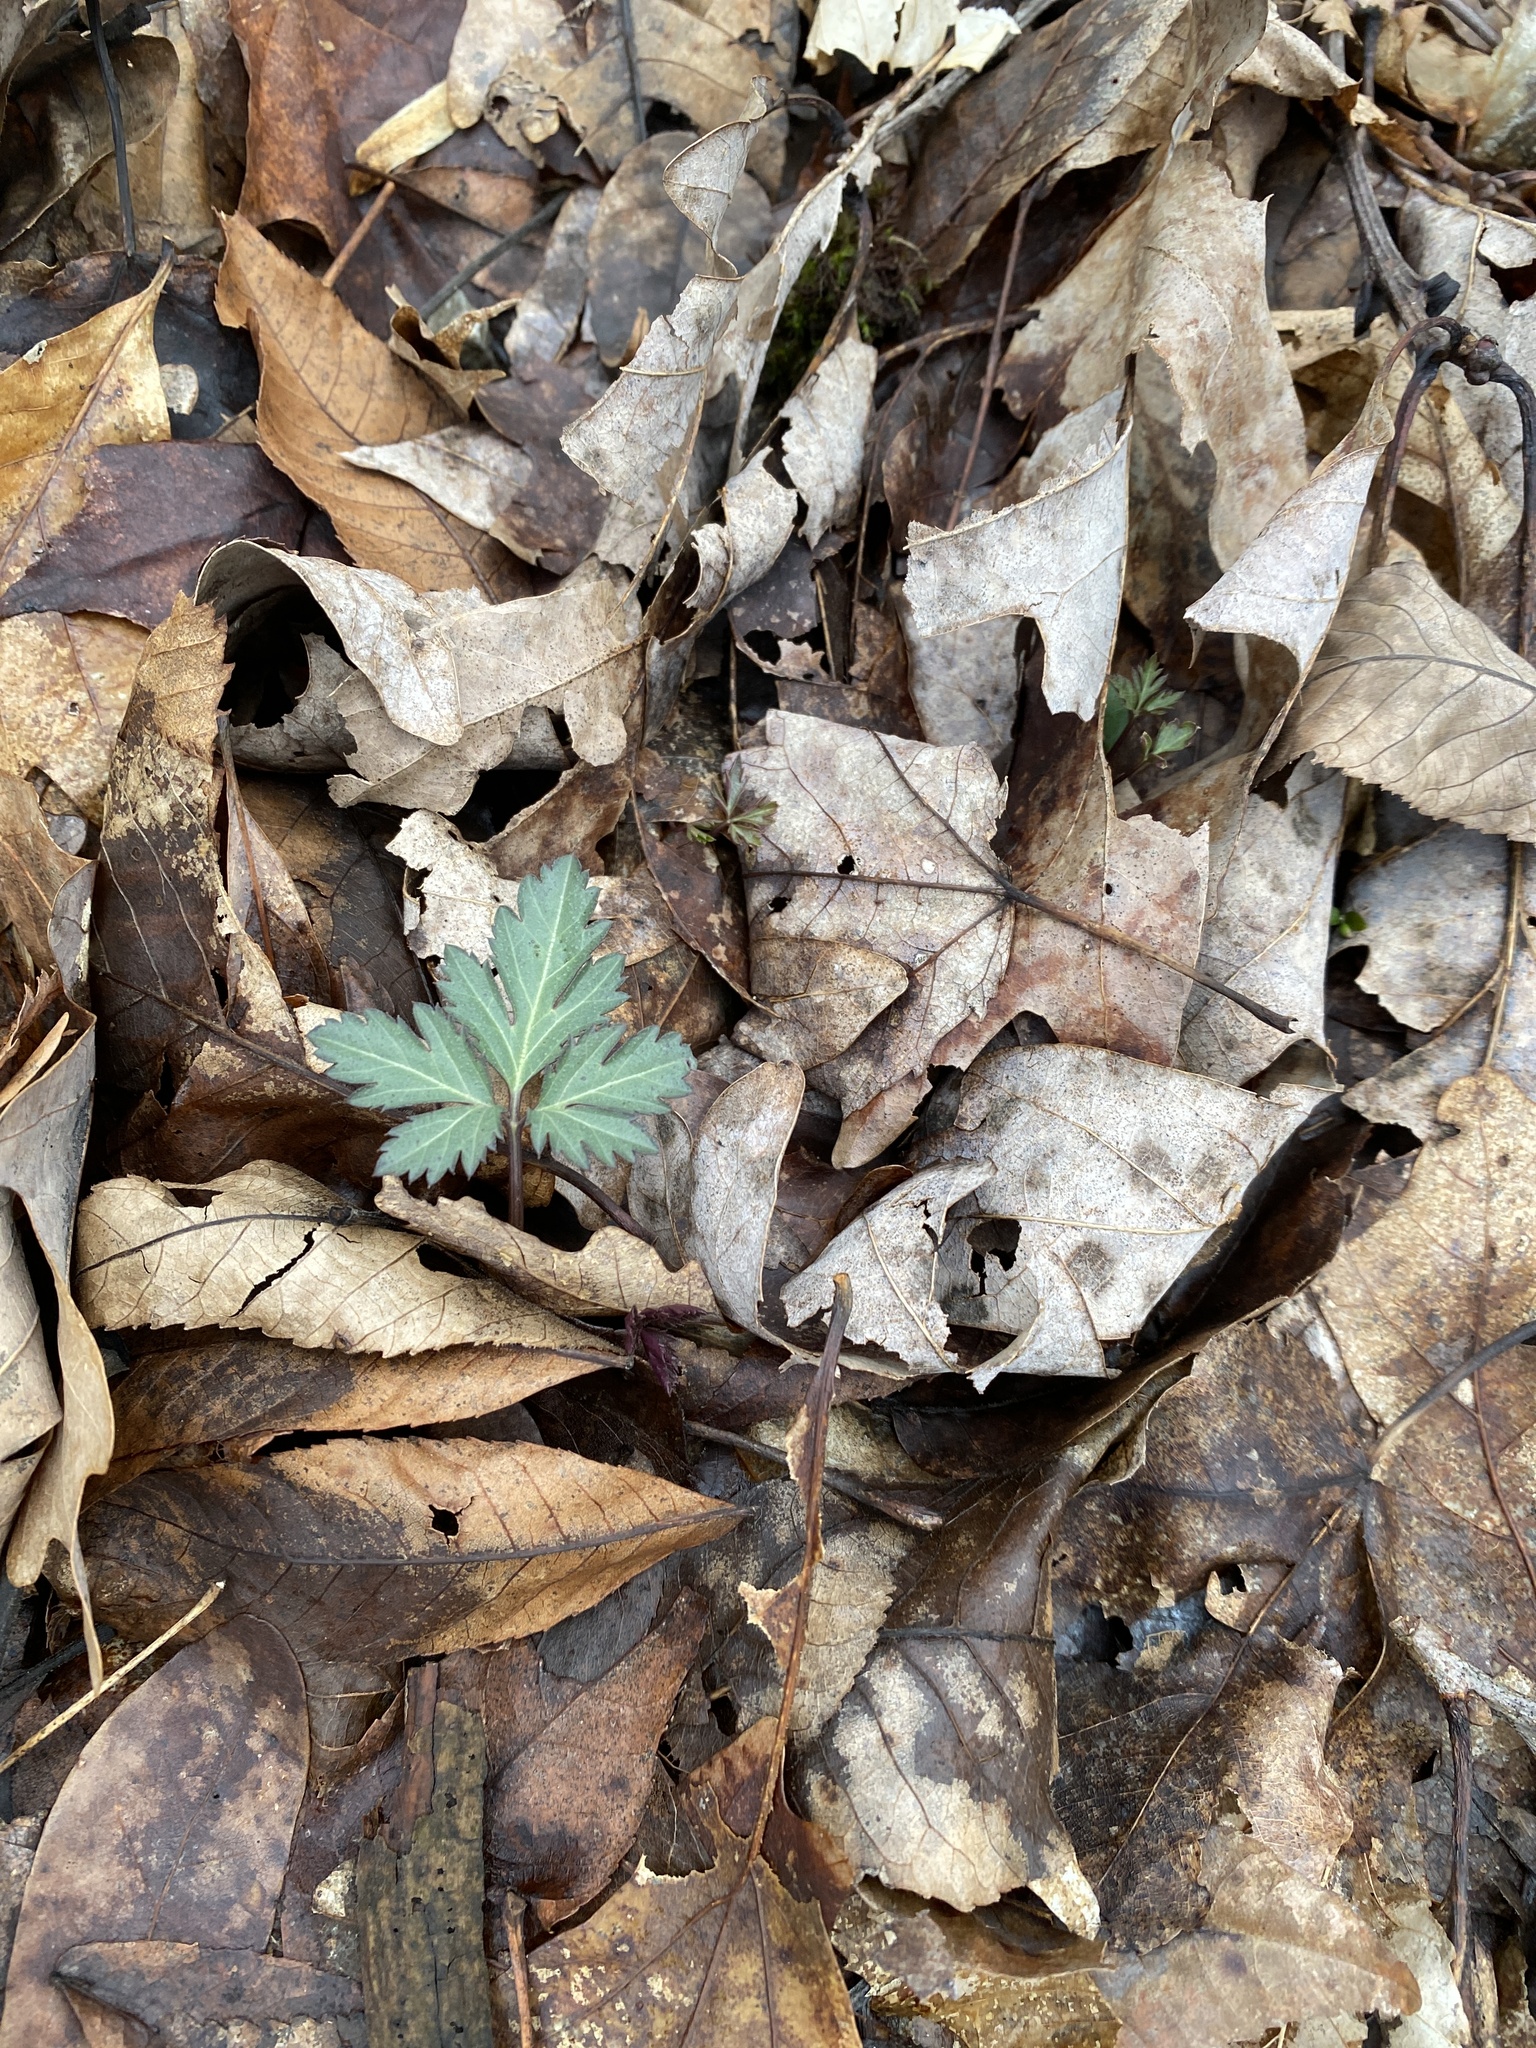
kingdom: Plantae
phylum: Tracheophyta
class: Magnoliopsida
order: Brassicales
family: Brassicaceae
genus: Cardamine
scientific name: Cardamine angustata
